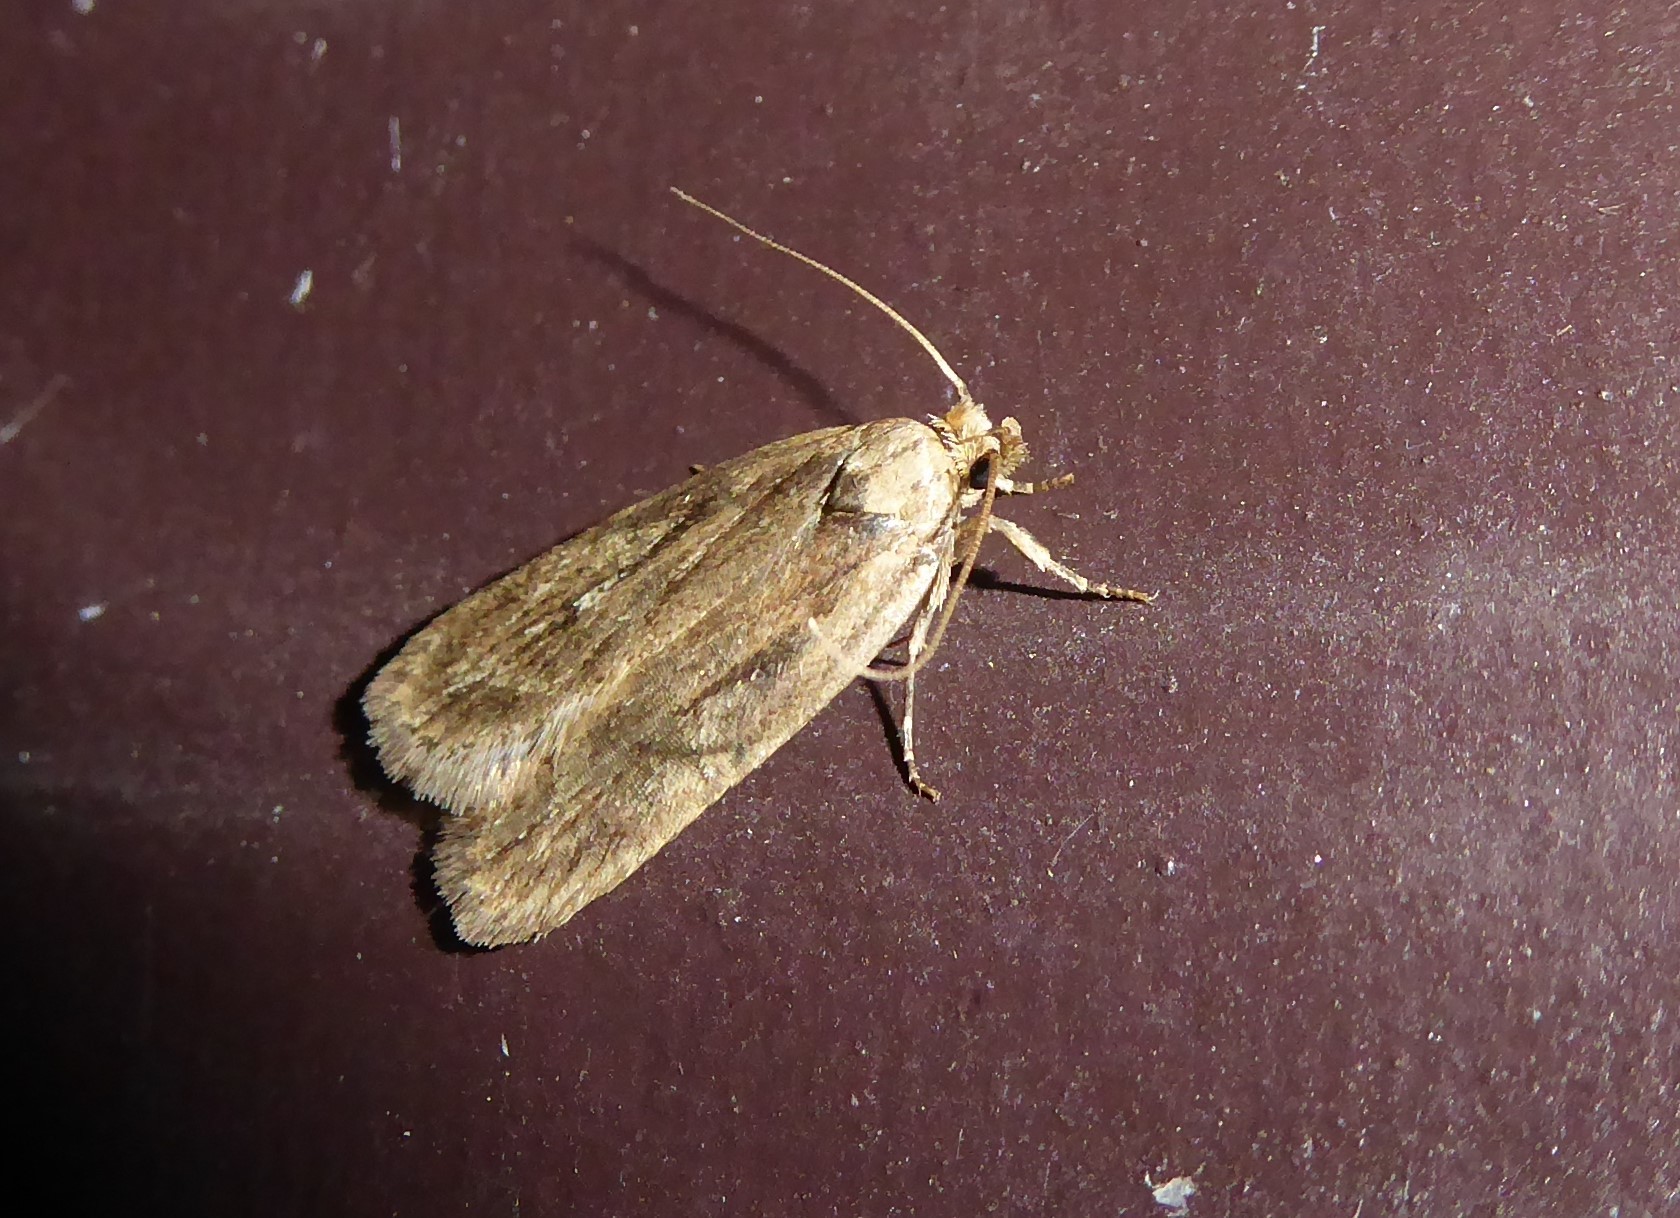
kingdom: Animalia
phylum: Arthropoda
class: Insecta
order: Lepidoptera
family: Depressariidae
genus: Depressaria
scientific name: Depressaria radiella
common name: Parsnip moth
